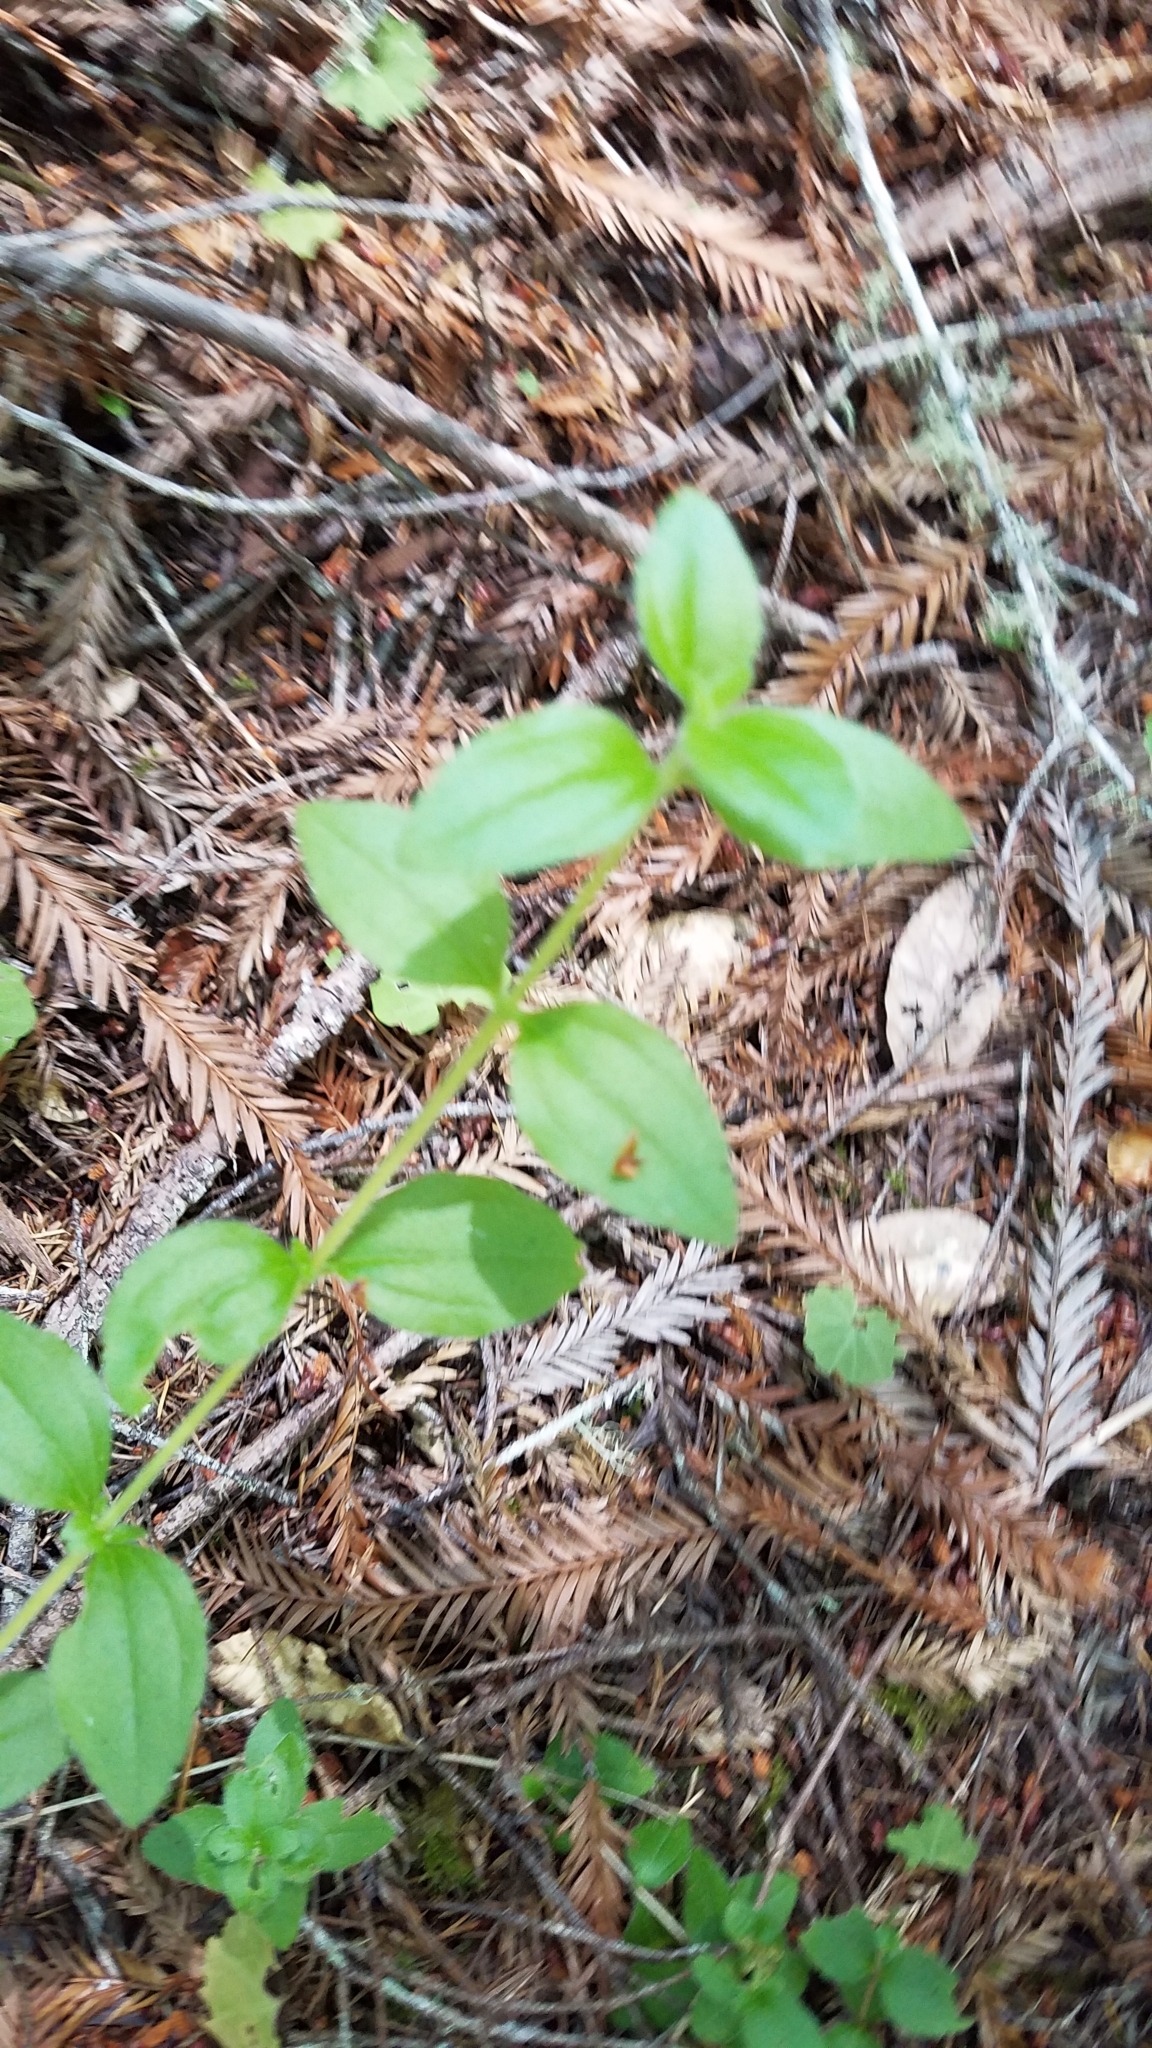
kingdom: Plantae
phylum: Tracheophyta
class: Magnoliopsida
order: Cornales
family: Hydrangeaceae
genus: Whipplea
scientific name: Whipplea modesta
